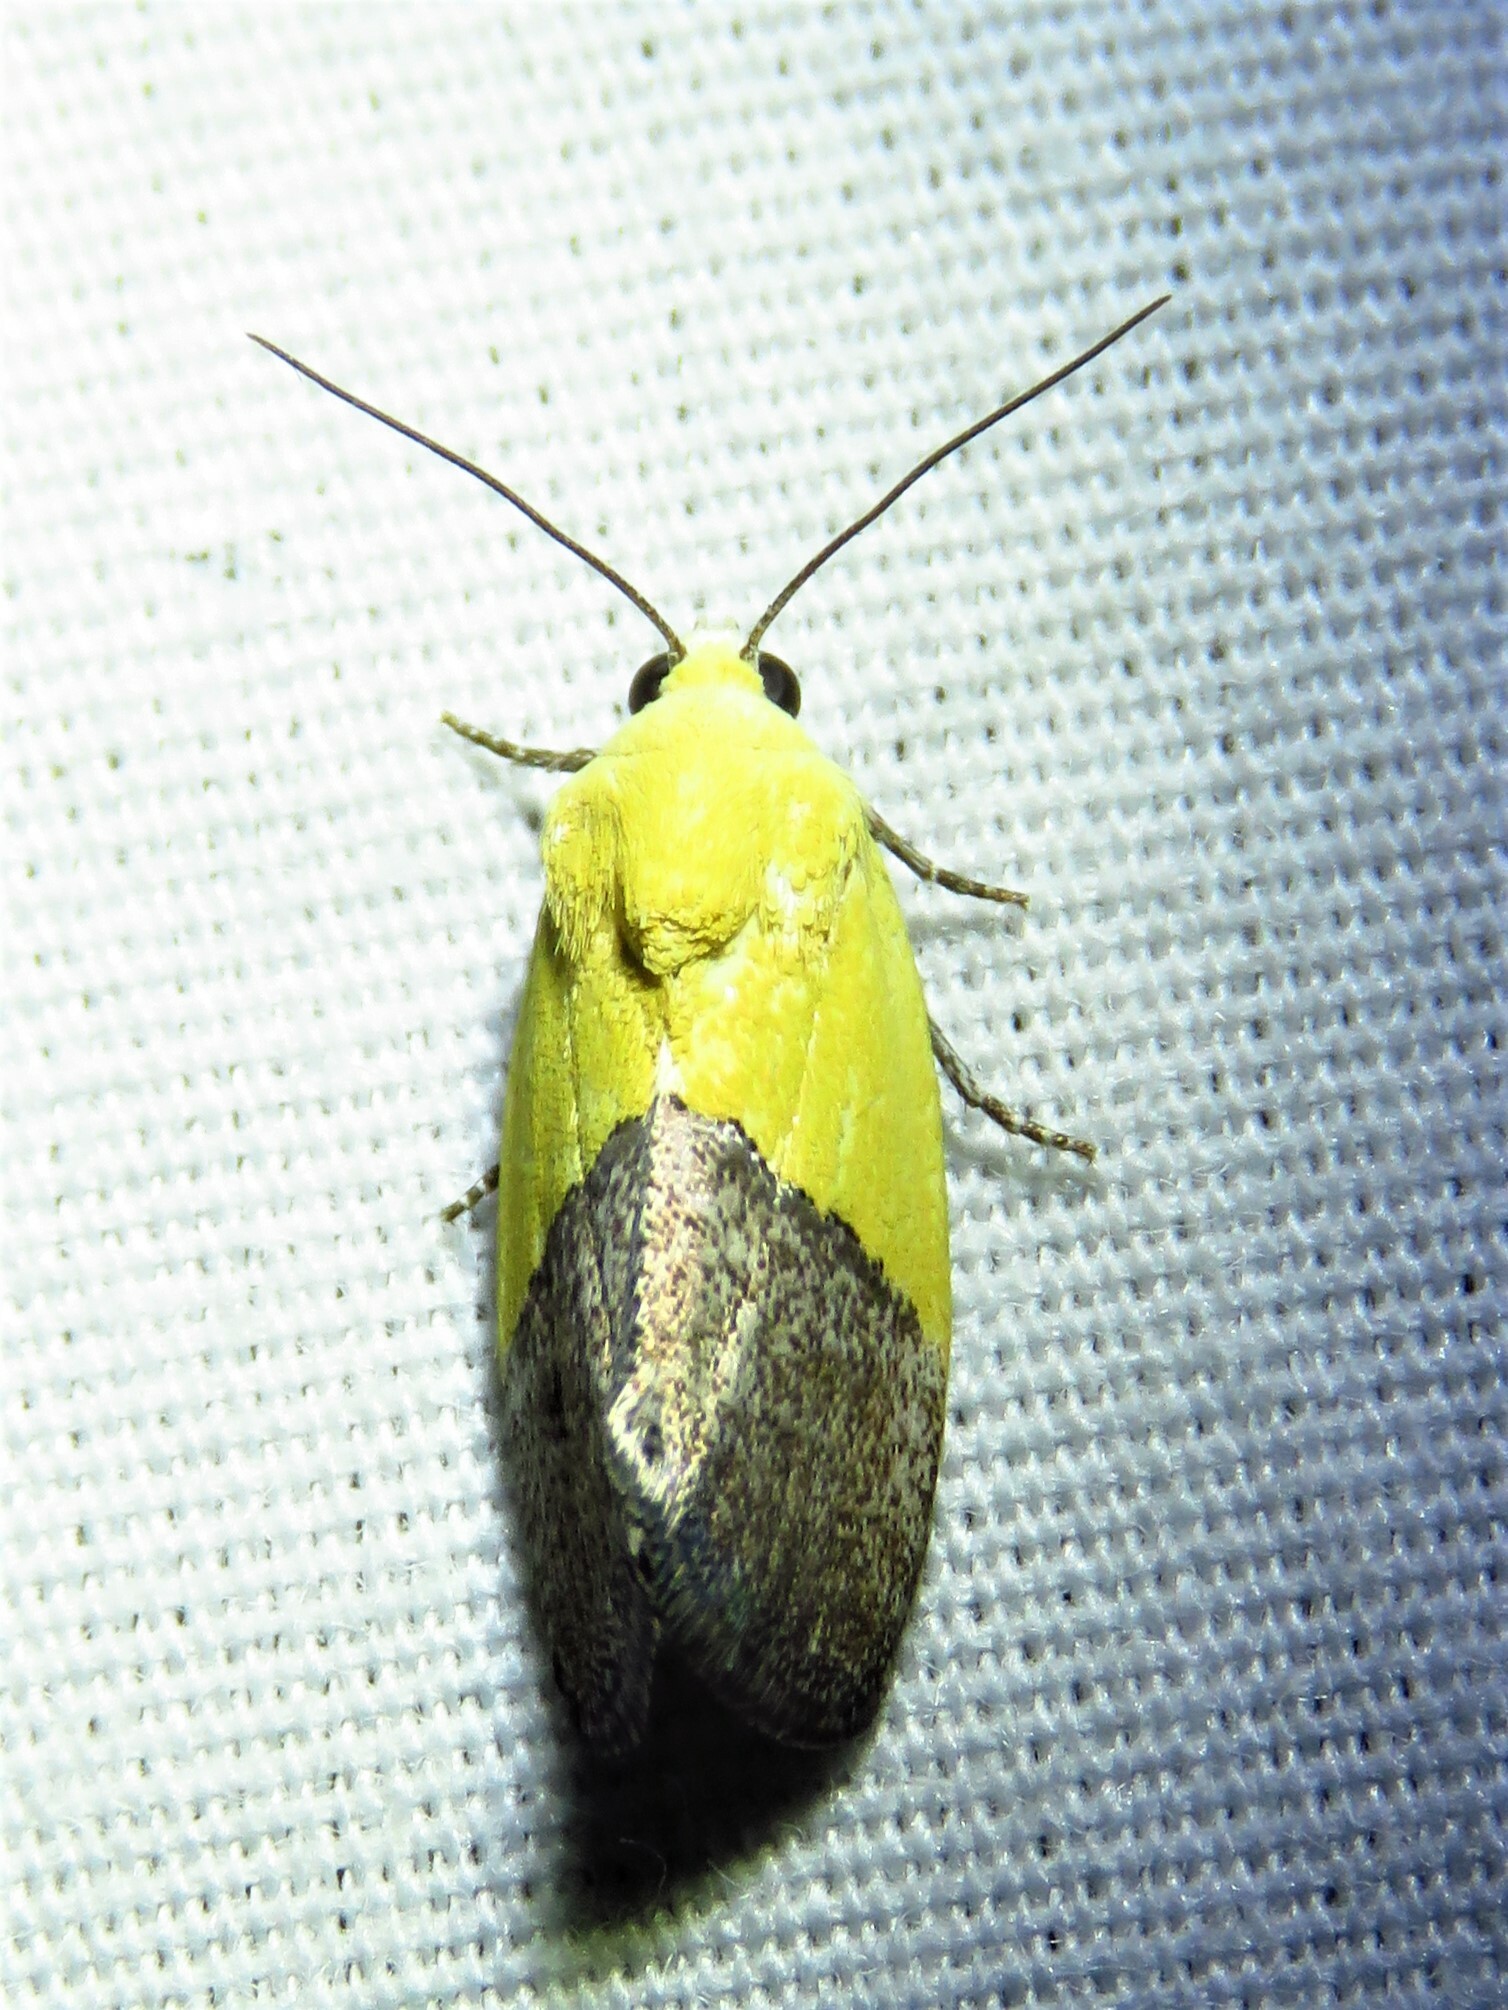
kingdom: Animalia
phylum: Arthropoda
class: Insecta
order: Lepidoptera
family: Noctuidae
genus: Acontia
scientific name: Acontia semiflava
